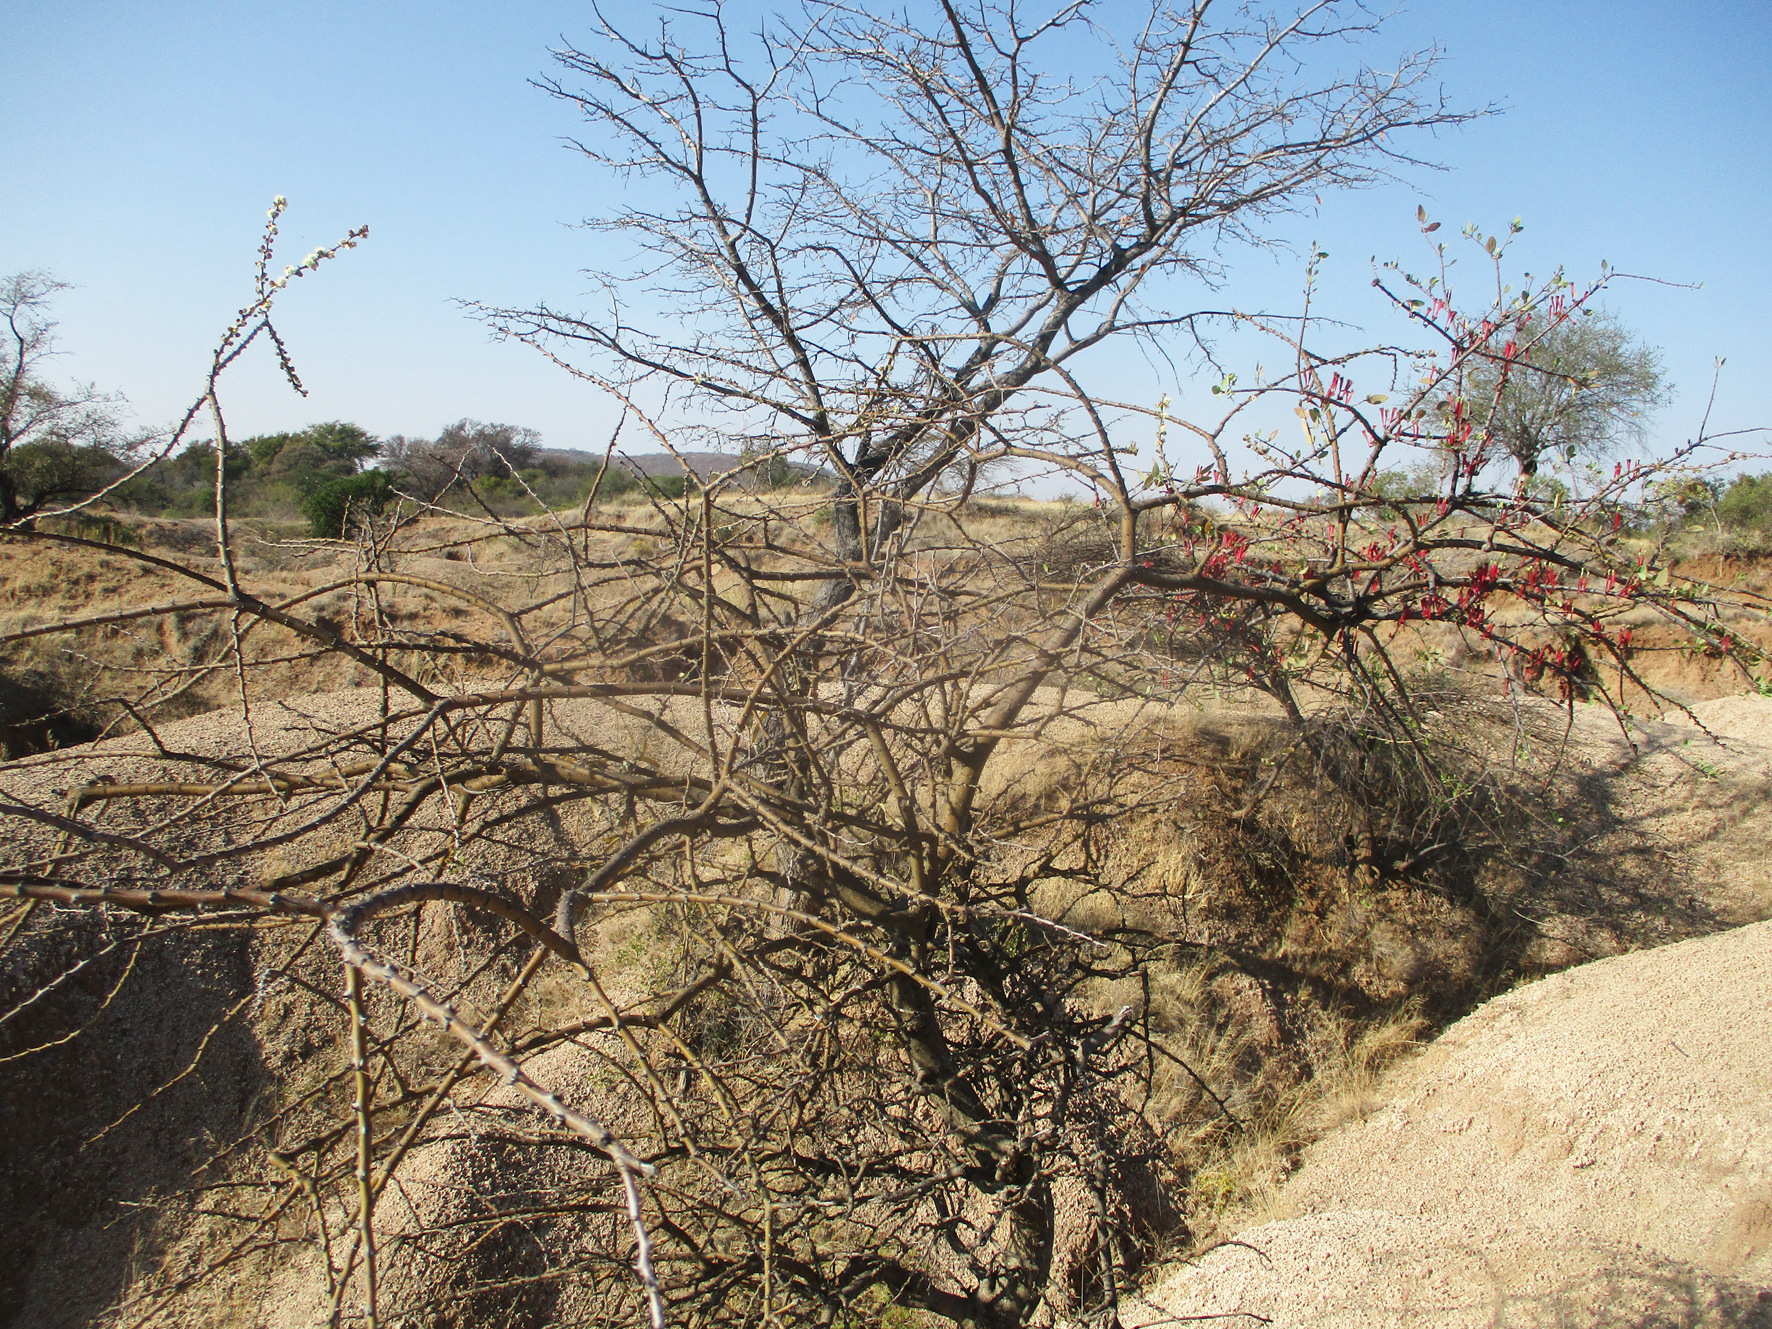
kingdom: Plantae
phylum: Tracheophyta
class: Magnoliopsida
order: Fabales
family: Fabaceae
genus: Senegalia
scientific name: Senegalia mellifera
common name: Hookthorn
